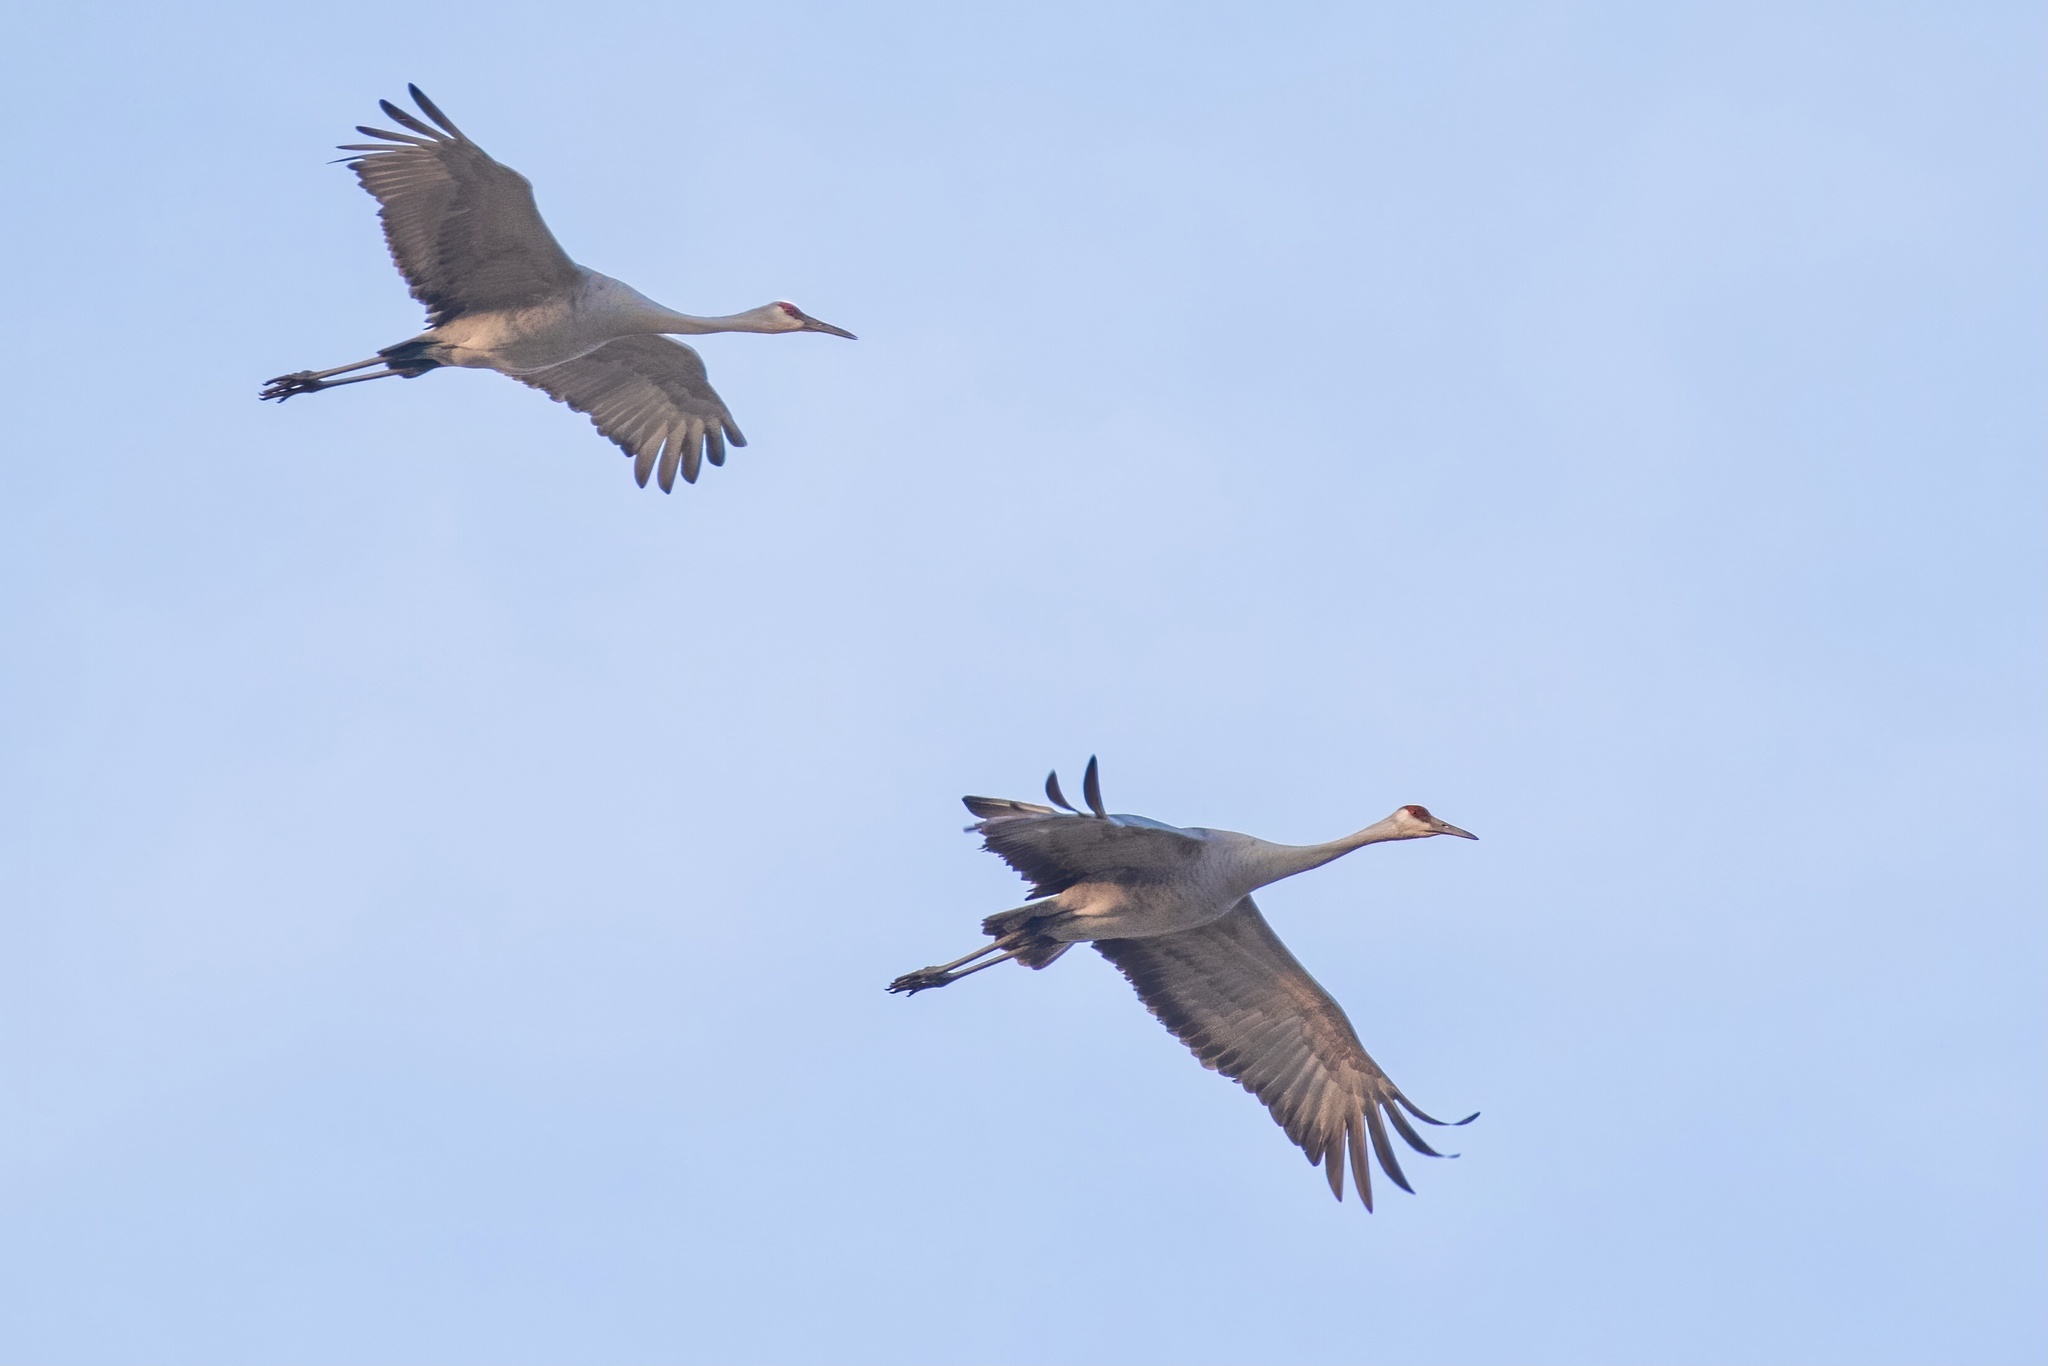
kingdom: Animalia
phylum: Chordata
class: Aves
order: Gruiformes
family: Gruidae
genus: Grus
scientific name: Grus canadensis
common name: Sandhill crane
